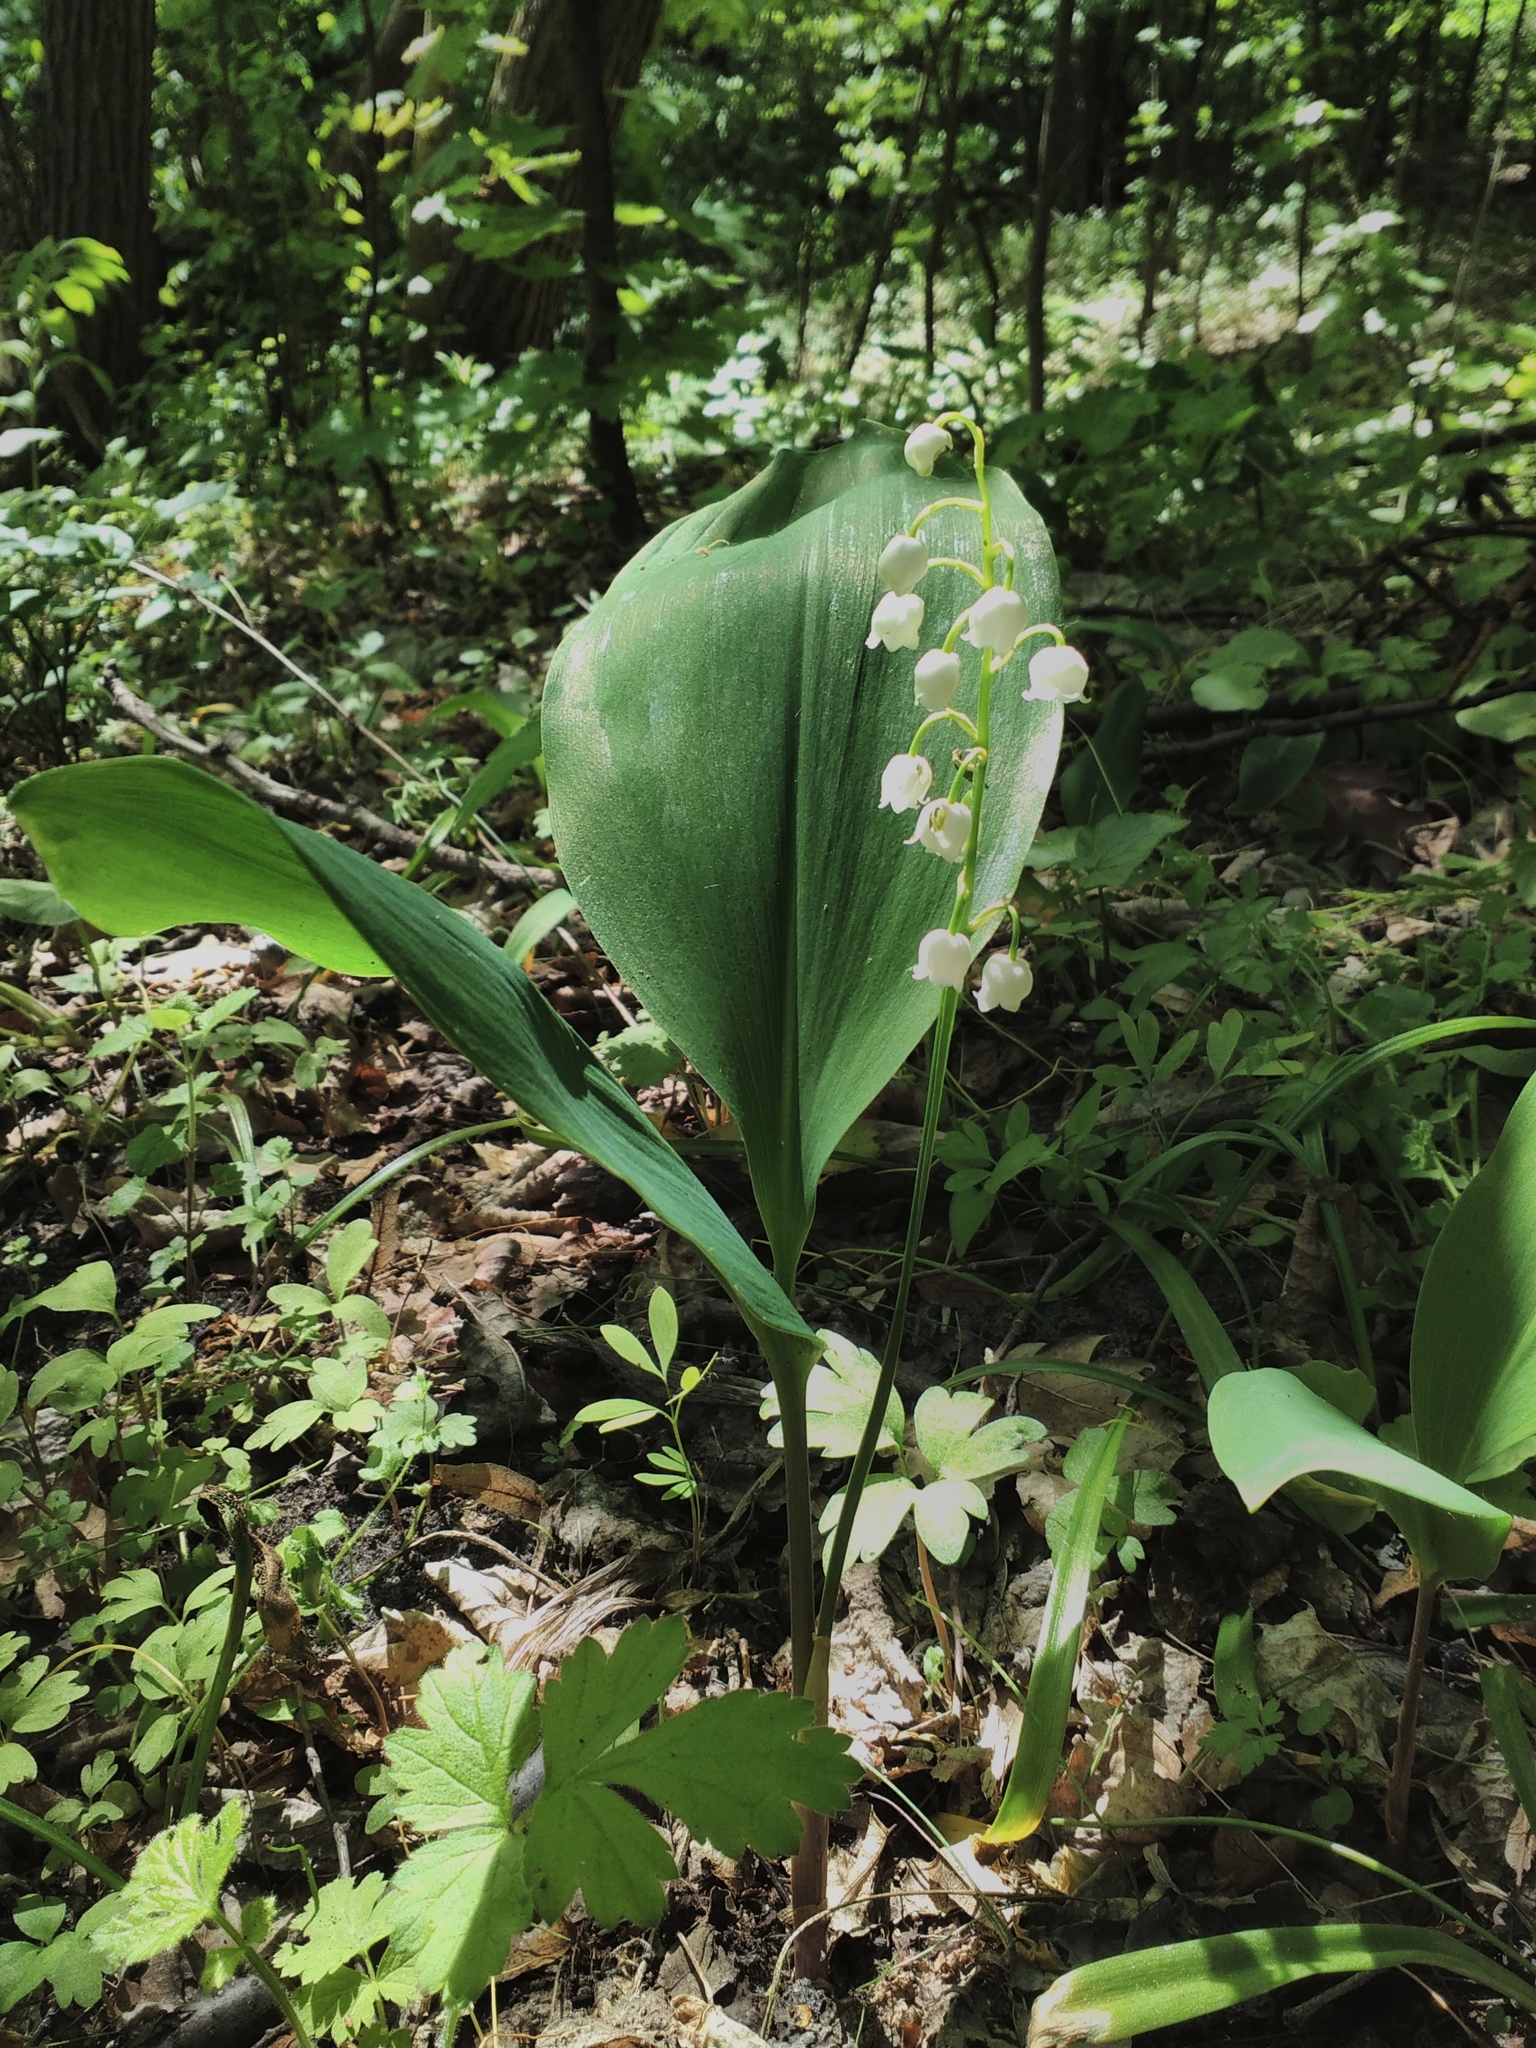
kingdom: Plantae
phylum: Tracheophyta
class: Liliopsida
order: Asparagales
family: Asparagaceae
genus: Convallaria
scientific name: Convallaria majalis
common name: Lily-of-the-valley
